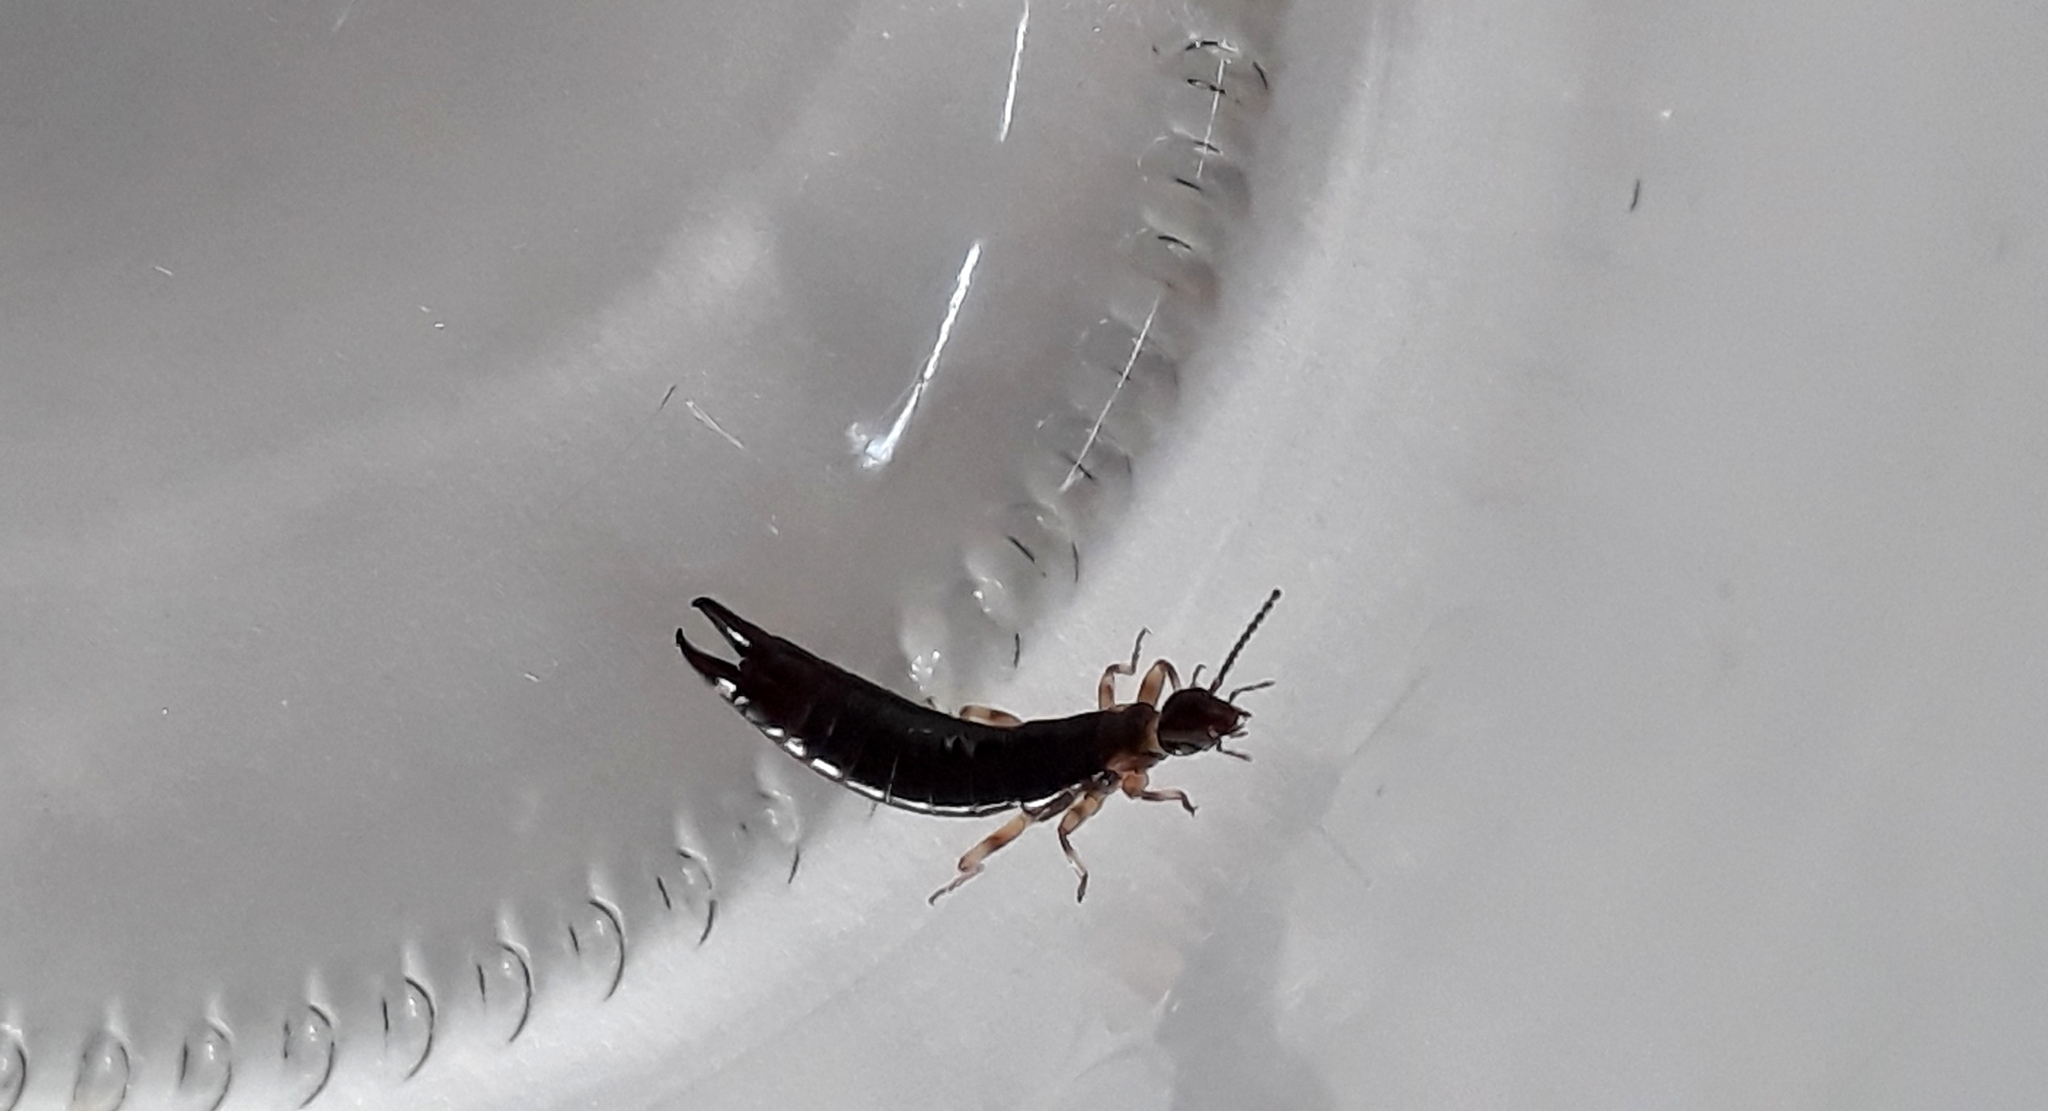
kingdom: Animalia
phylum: Arthropoda
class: Insecta
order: Dermaptera
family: Anisolabididae
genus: Euborellia
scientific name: Euborellia annulipes
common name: Ringlegged earwig
